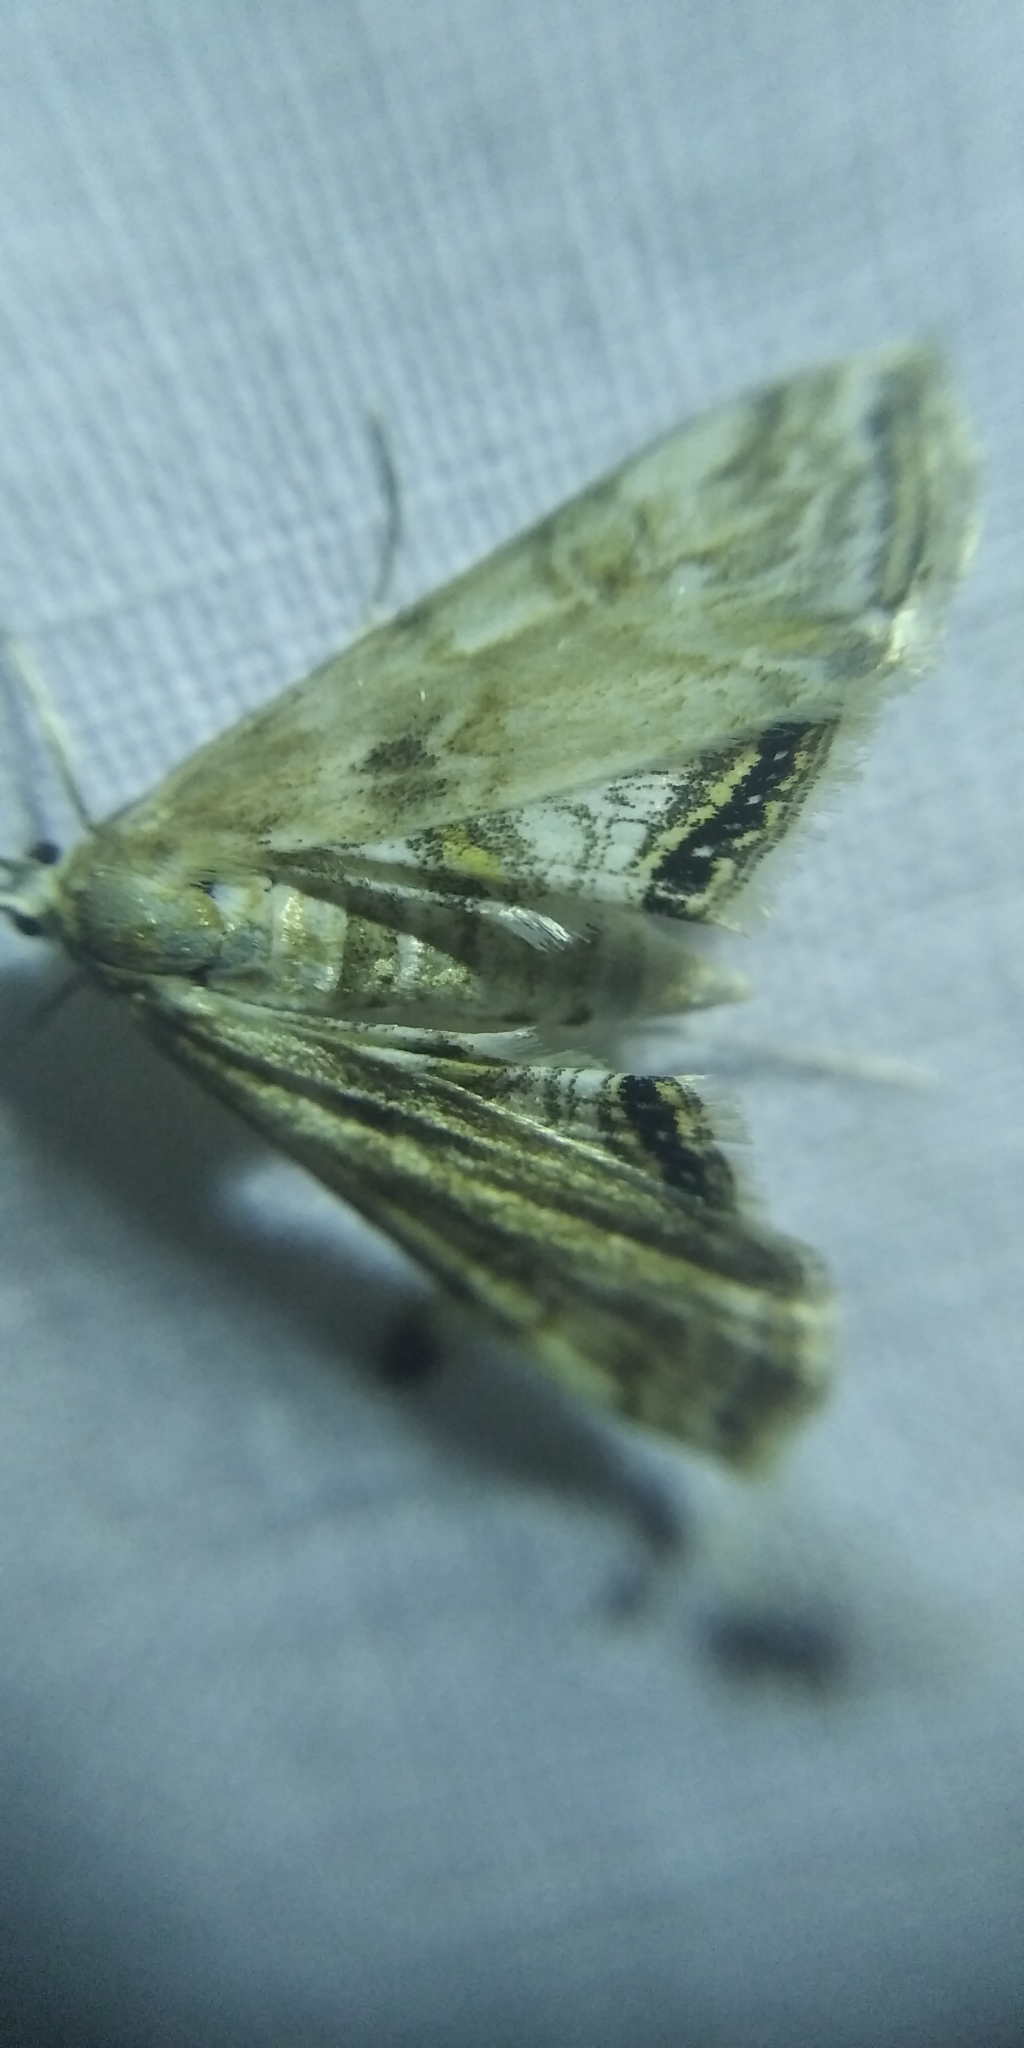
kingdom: Animalia
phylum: Arthropoda
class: Insecta
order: Lepidoptera
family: Crambidae
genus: Cataclysta
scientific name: Cataclysta lemnata
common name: Small china-mark
